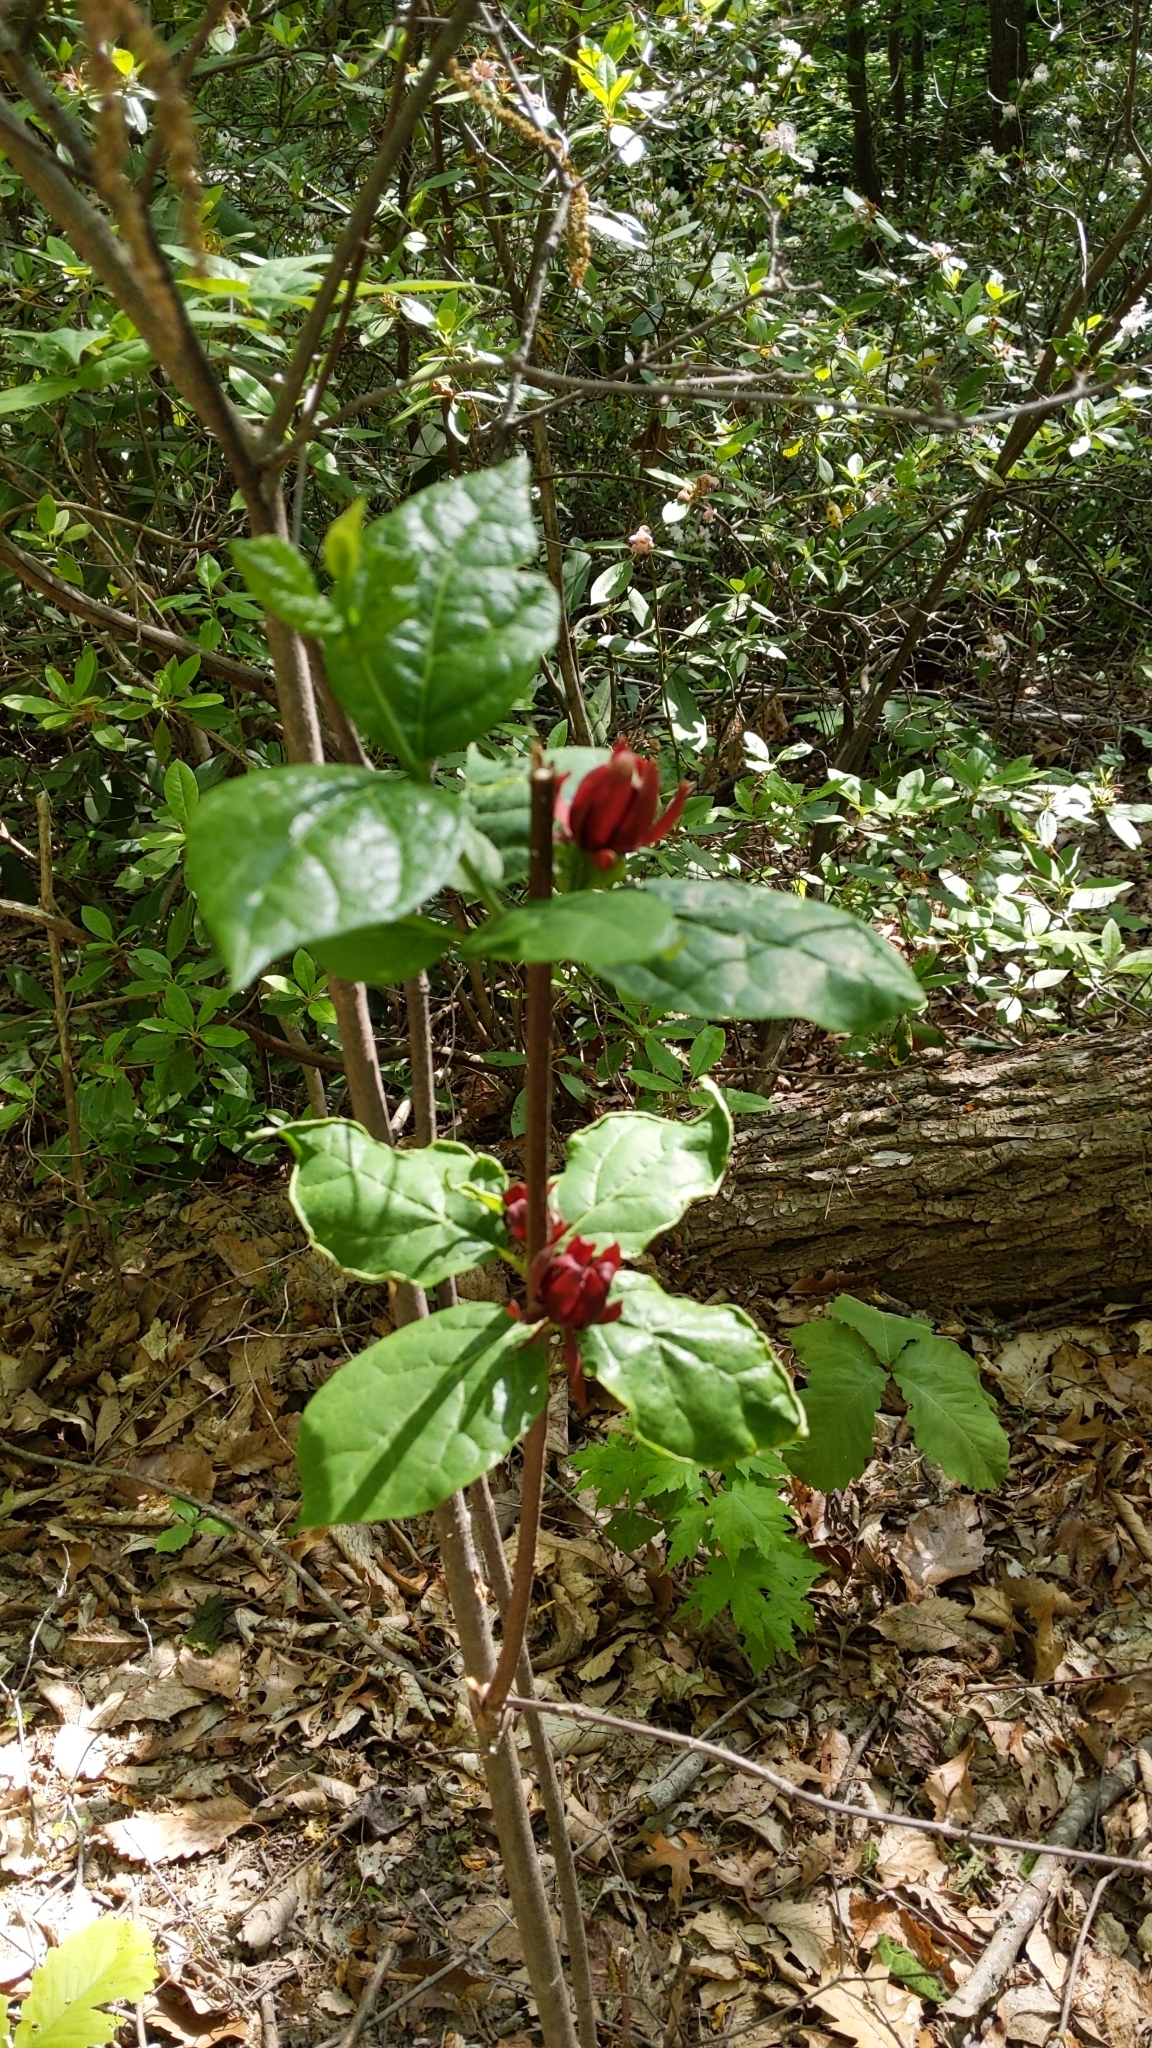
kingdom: Plantae
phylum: Tracheophyta
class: Magnoliopsida
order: Laurales
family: Calycanthaceae
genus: Calycanthus
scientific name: Calycanthus floridus
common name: Carolina-allspice
